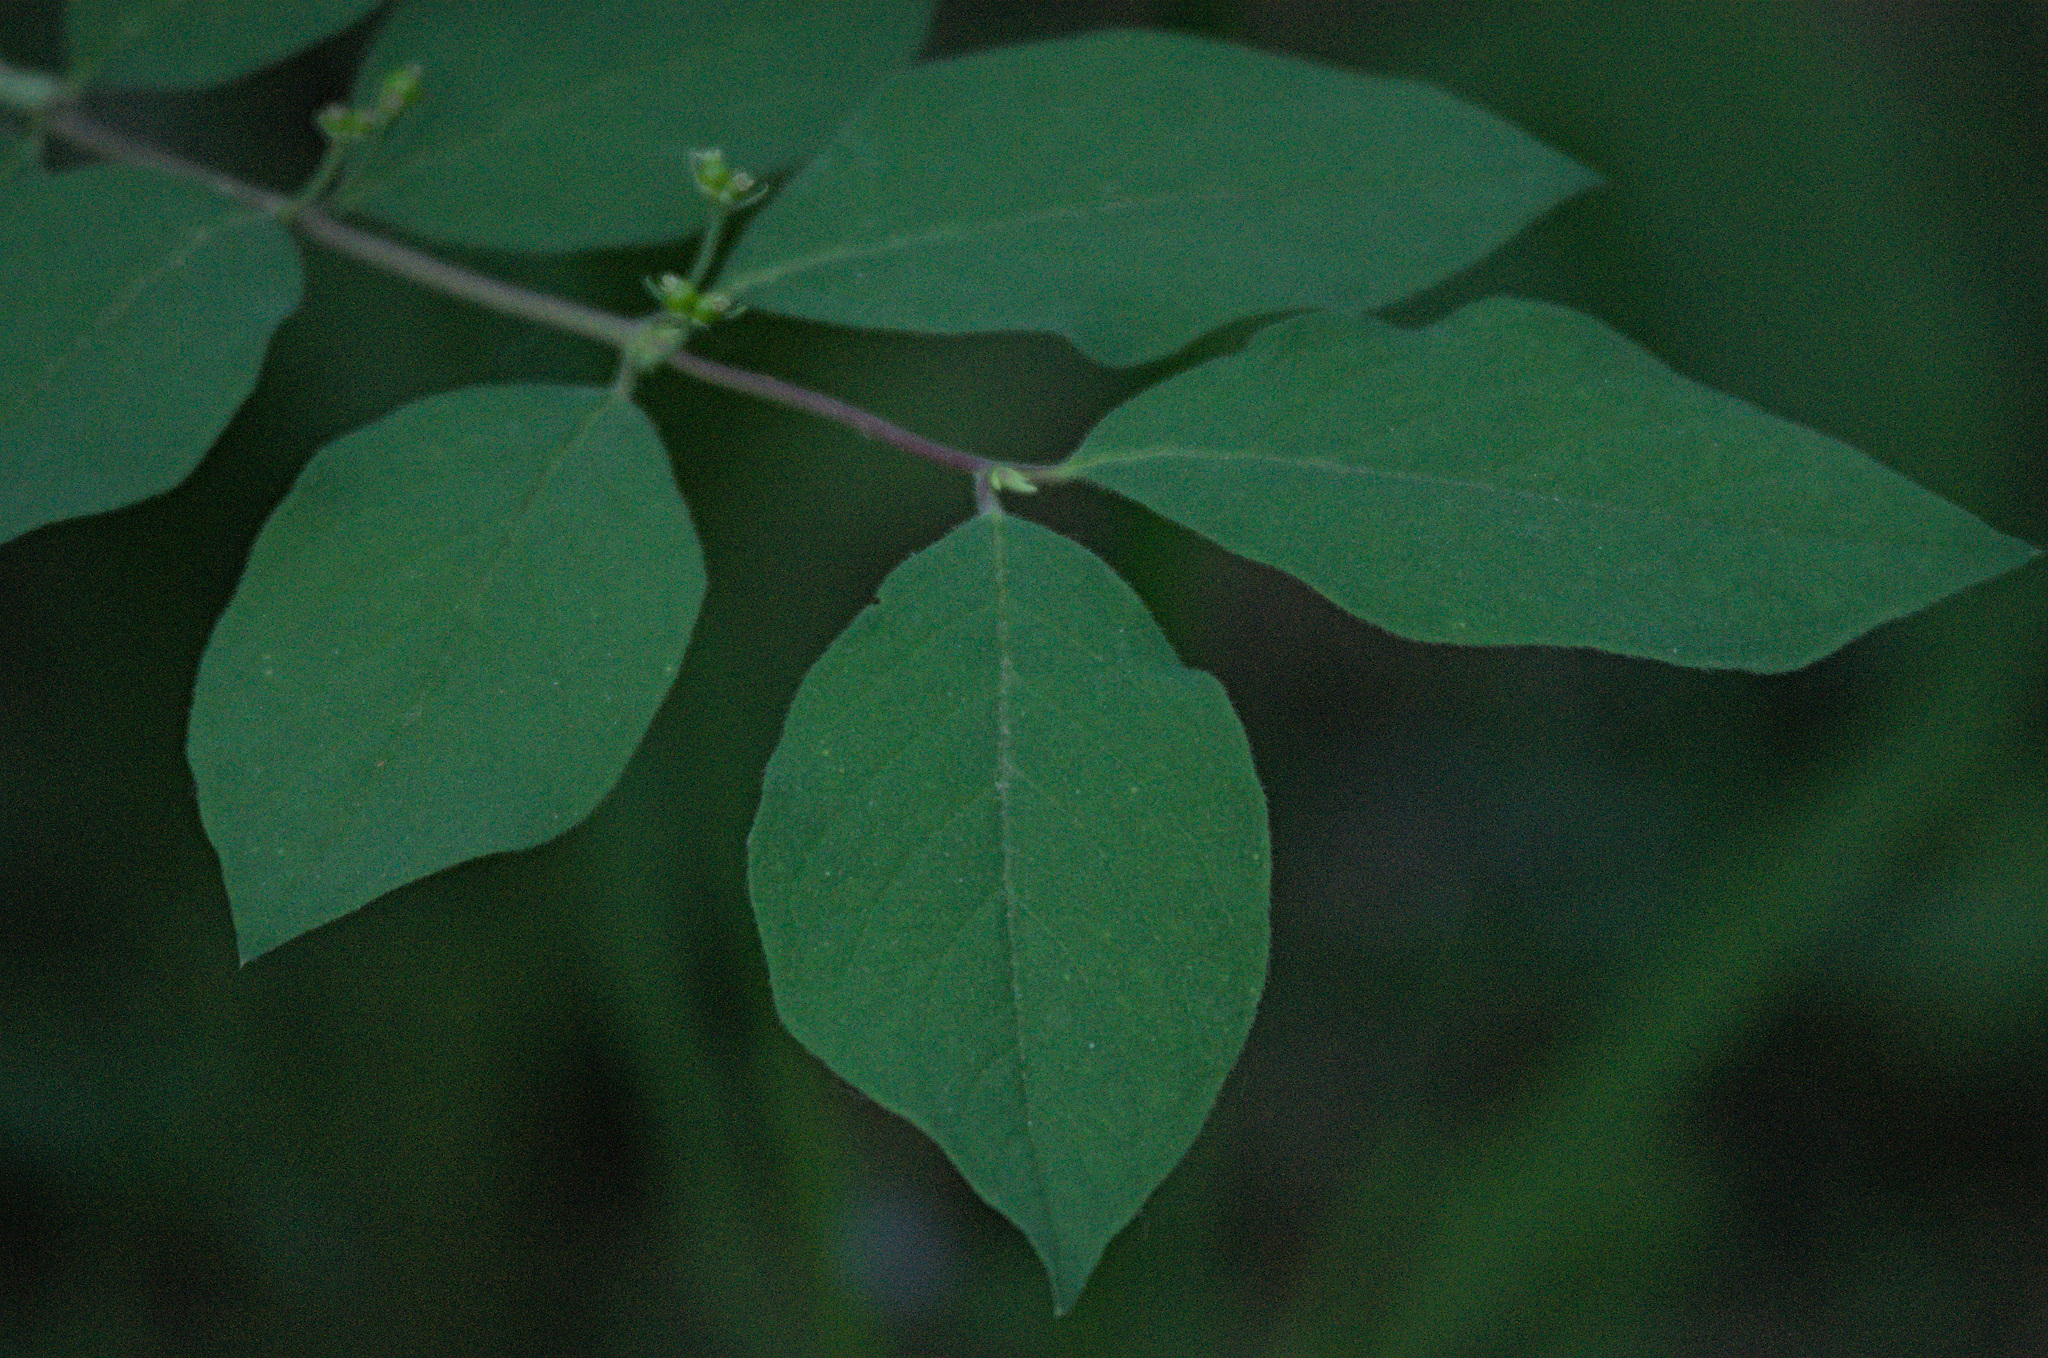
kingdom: Plantae
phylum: Tracheophyta
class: Magnoliopsida
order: Dipsacales
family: Caprifoliaceae
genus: Lonicera
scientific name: Lonicera xylosteum
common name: Fly honeysuckle
